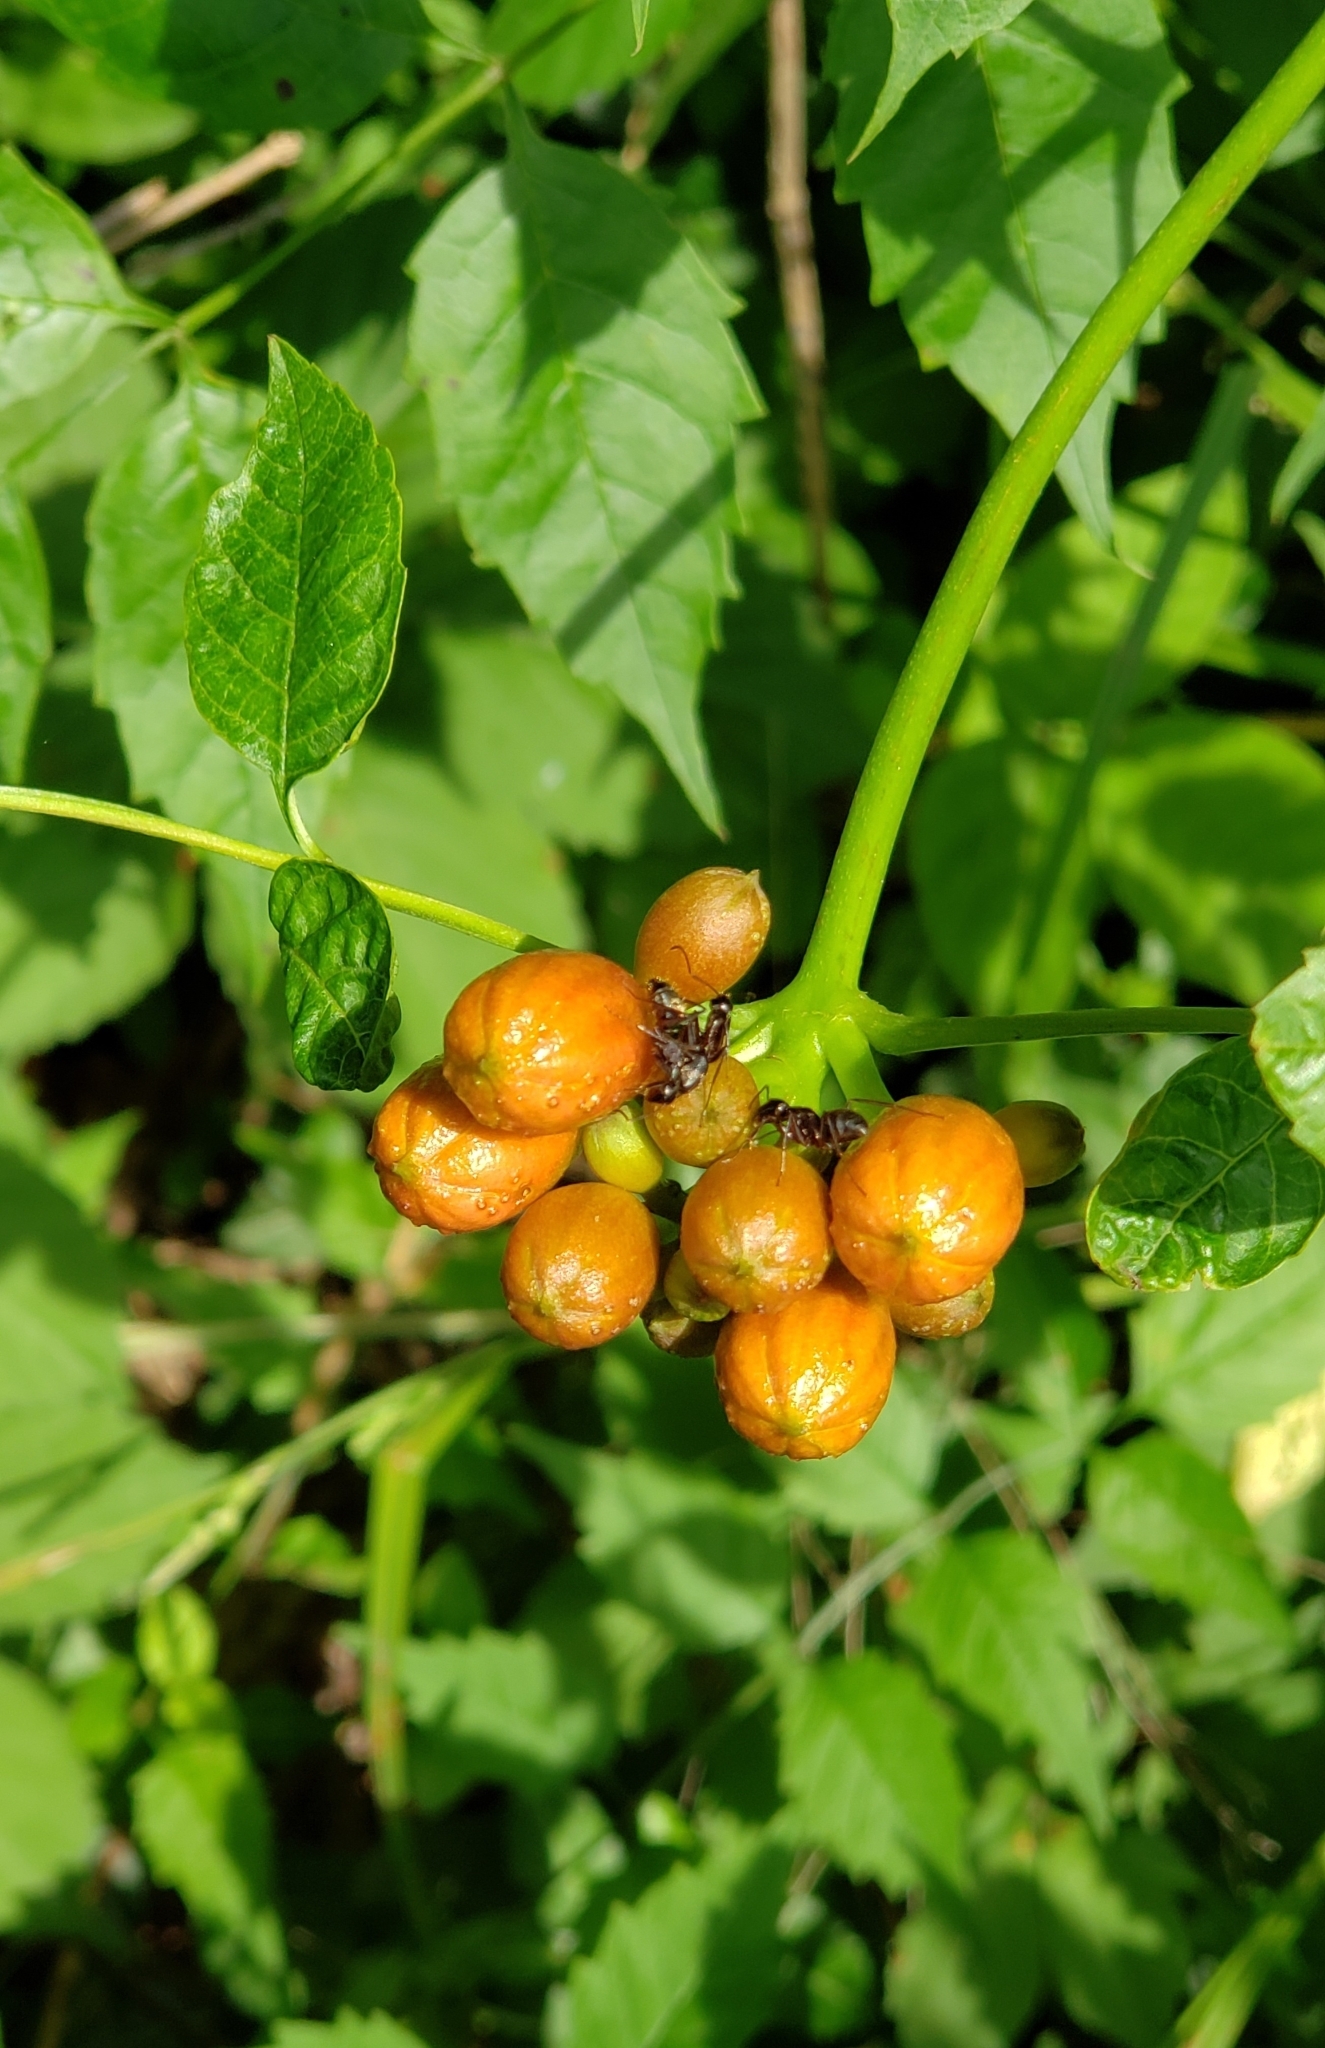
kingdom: Plantae
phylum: Tracheophyta
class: Magnoliopsida
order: Lamiales
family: Bignoniaceae
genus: Campsis
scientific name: Campsis radicans
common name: Trumpet-creeper
